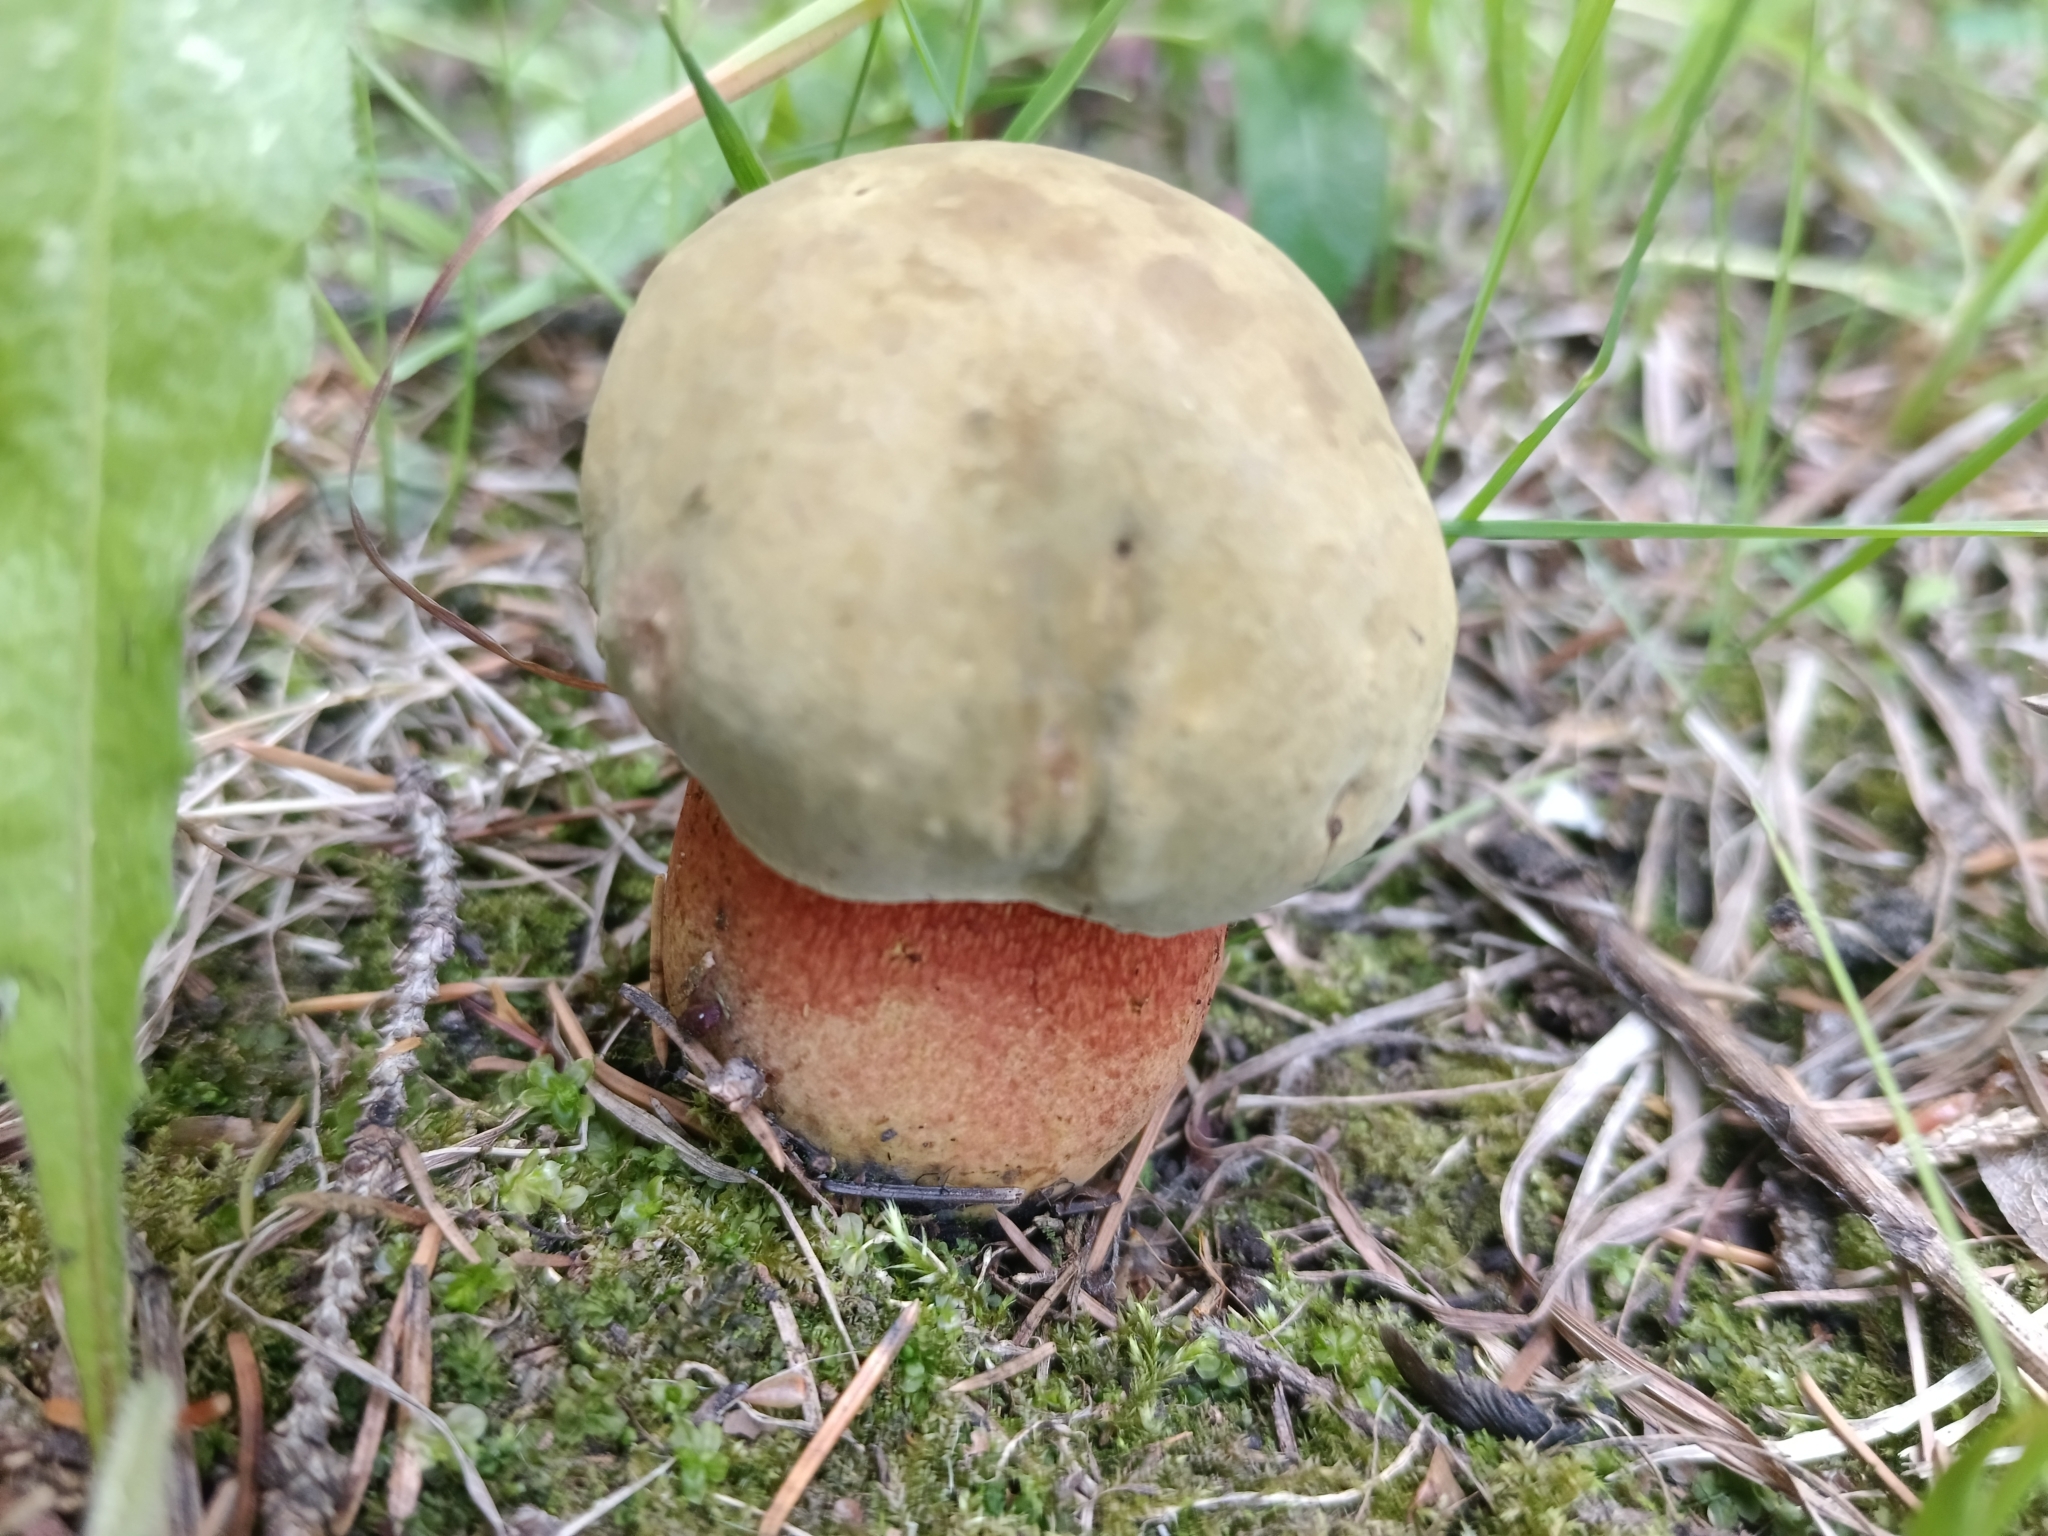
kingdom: Fungi
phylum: Basidiomycota
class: Agaricomycetes
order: Boletales
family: Boletaceae
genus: Suillellus
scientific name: Suillellus luridus
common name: Lurid bolete
